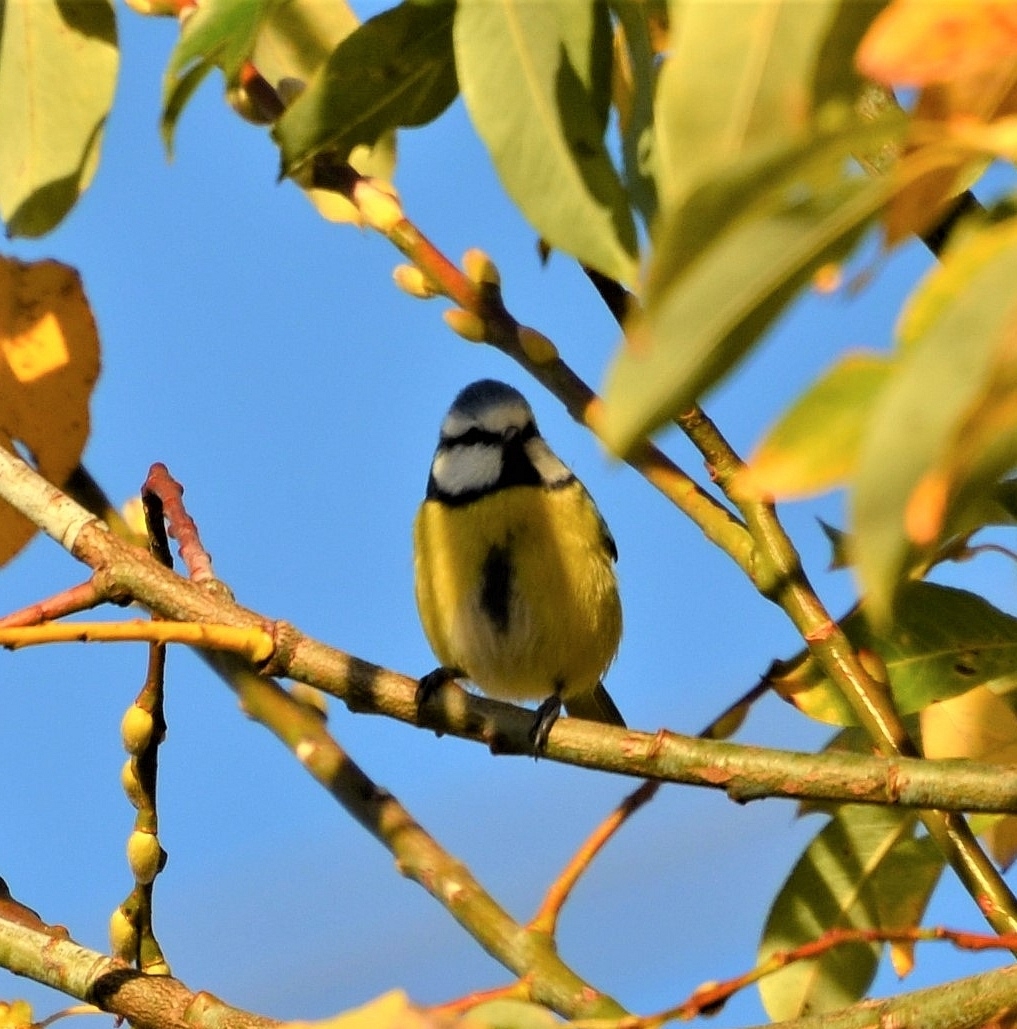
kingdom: Animalia
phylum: Chordata
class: Aves
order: Passeriformes
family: Paridae
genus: Cyanistes
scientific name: Cyanistes caeruleus
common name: Eurasian blue tit
